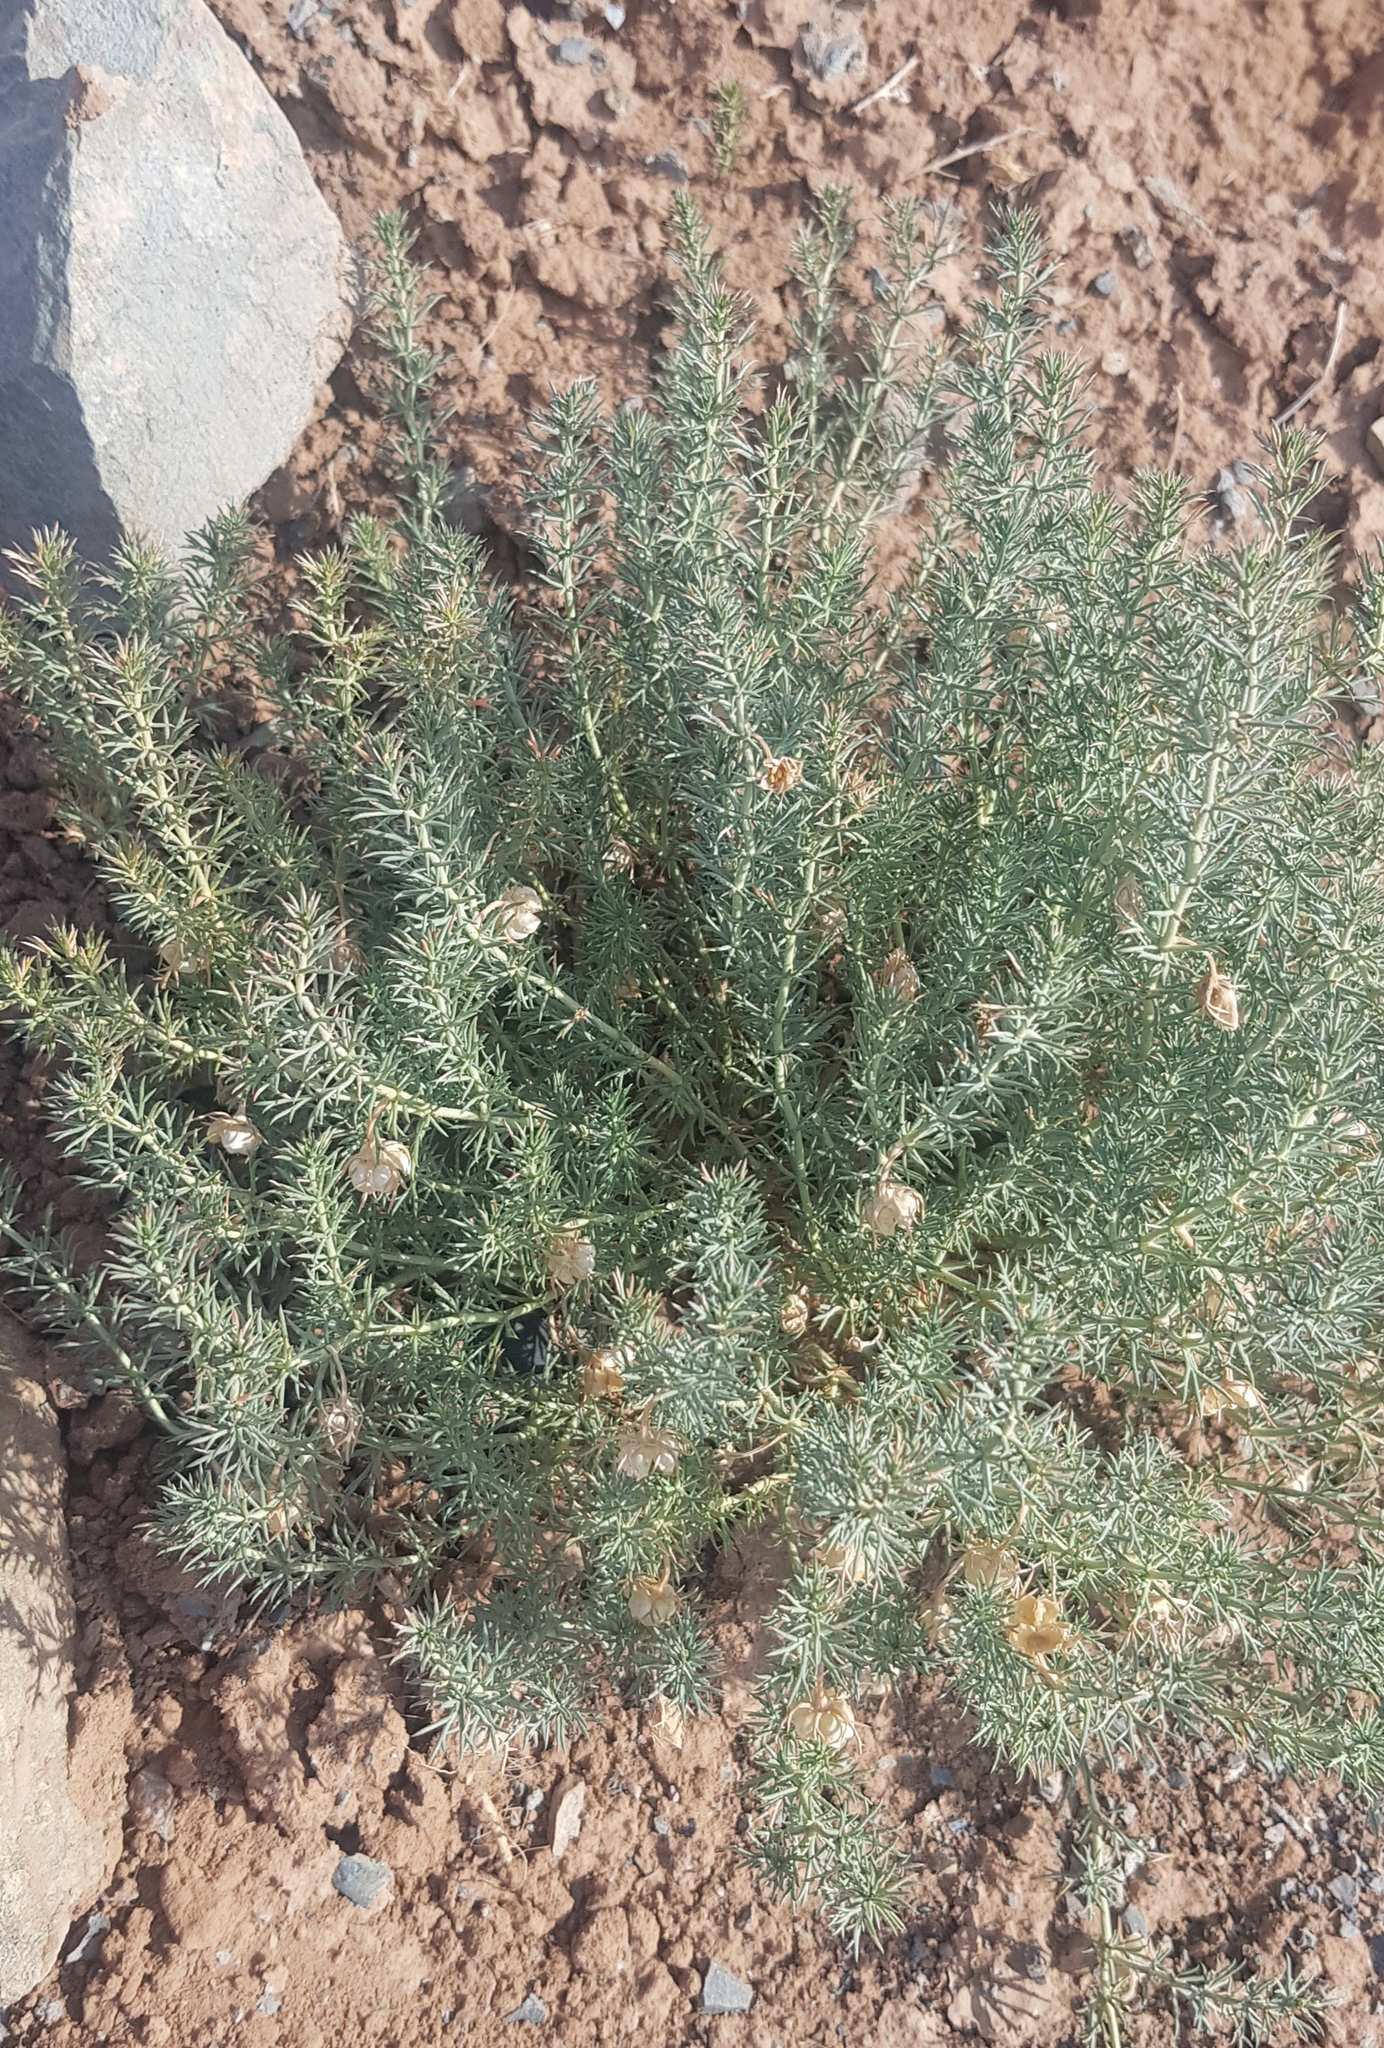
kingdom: Plantae
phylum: Tracheophyta
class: Magnoliopsida
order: Sapindales
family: Tetradiclidaceae
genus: Peganum
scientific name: Peganum harmala
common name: Harmal peganum
